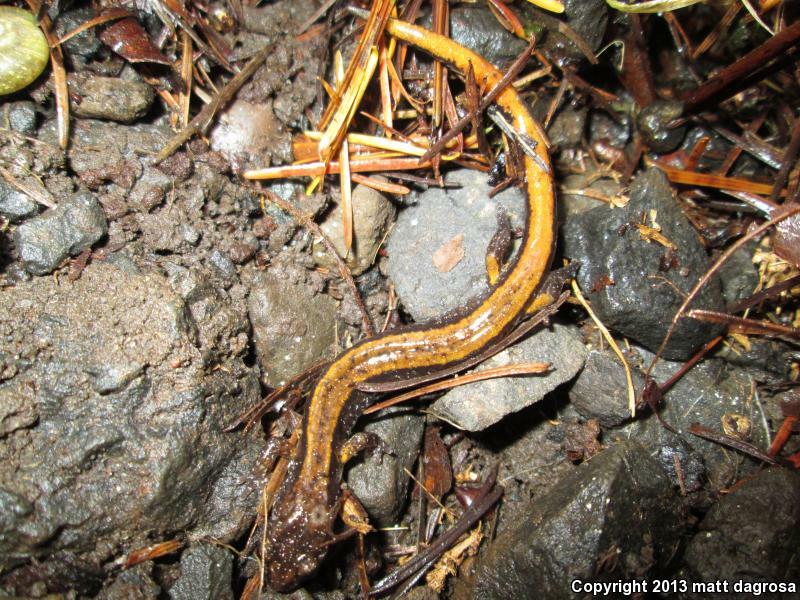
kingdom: Animalia
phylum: Chordata
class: Amphibia
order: Caudata
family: Plethodontidae
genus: Plethodon
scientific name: Plethodon vehiculum
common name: Western red-backed salamander
